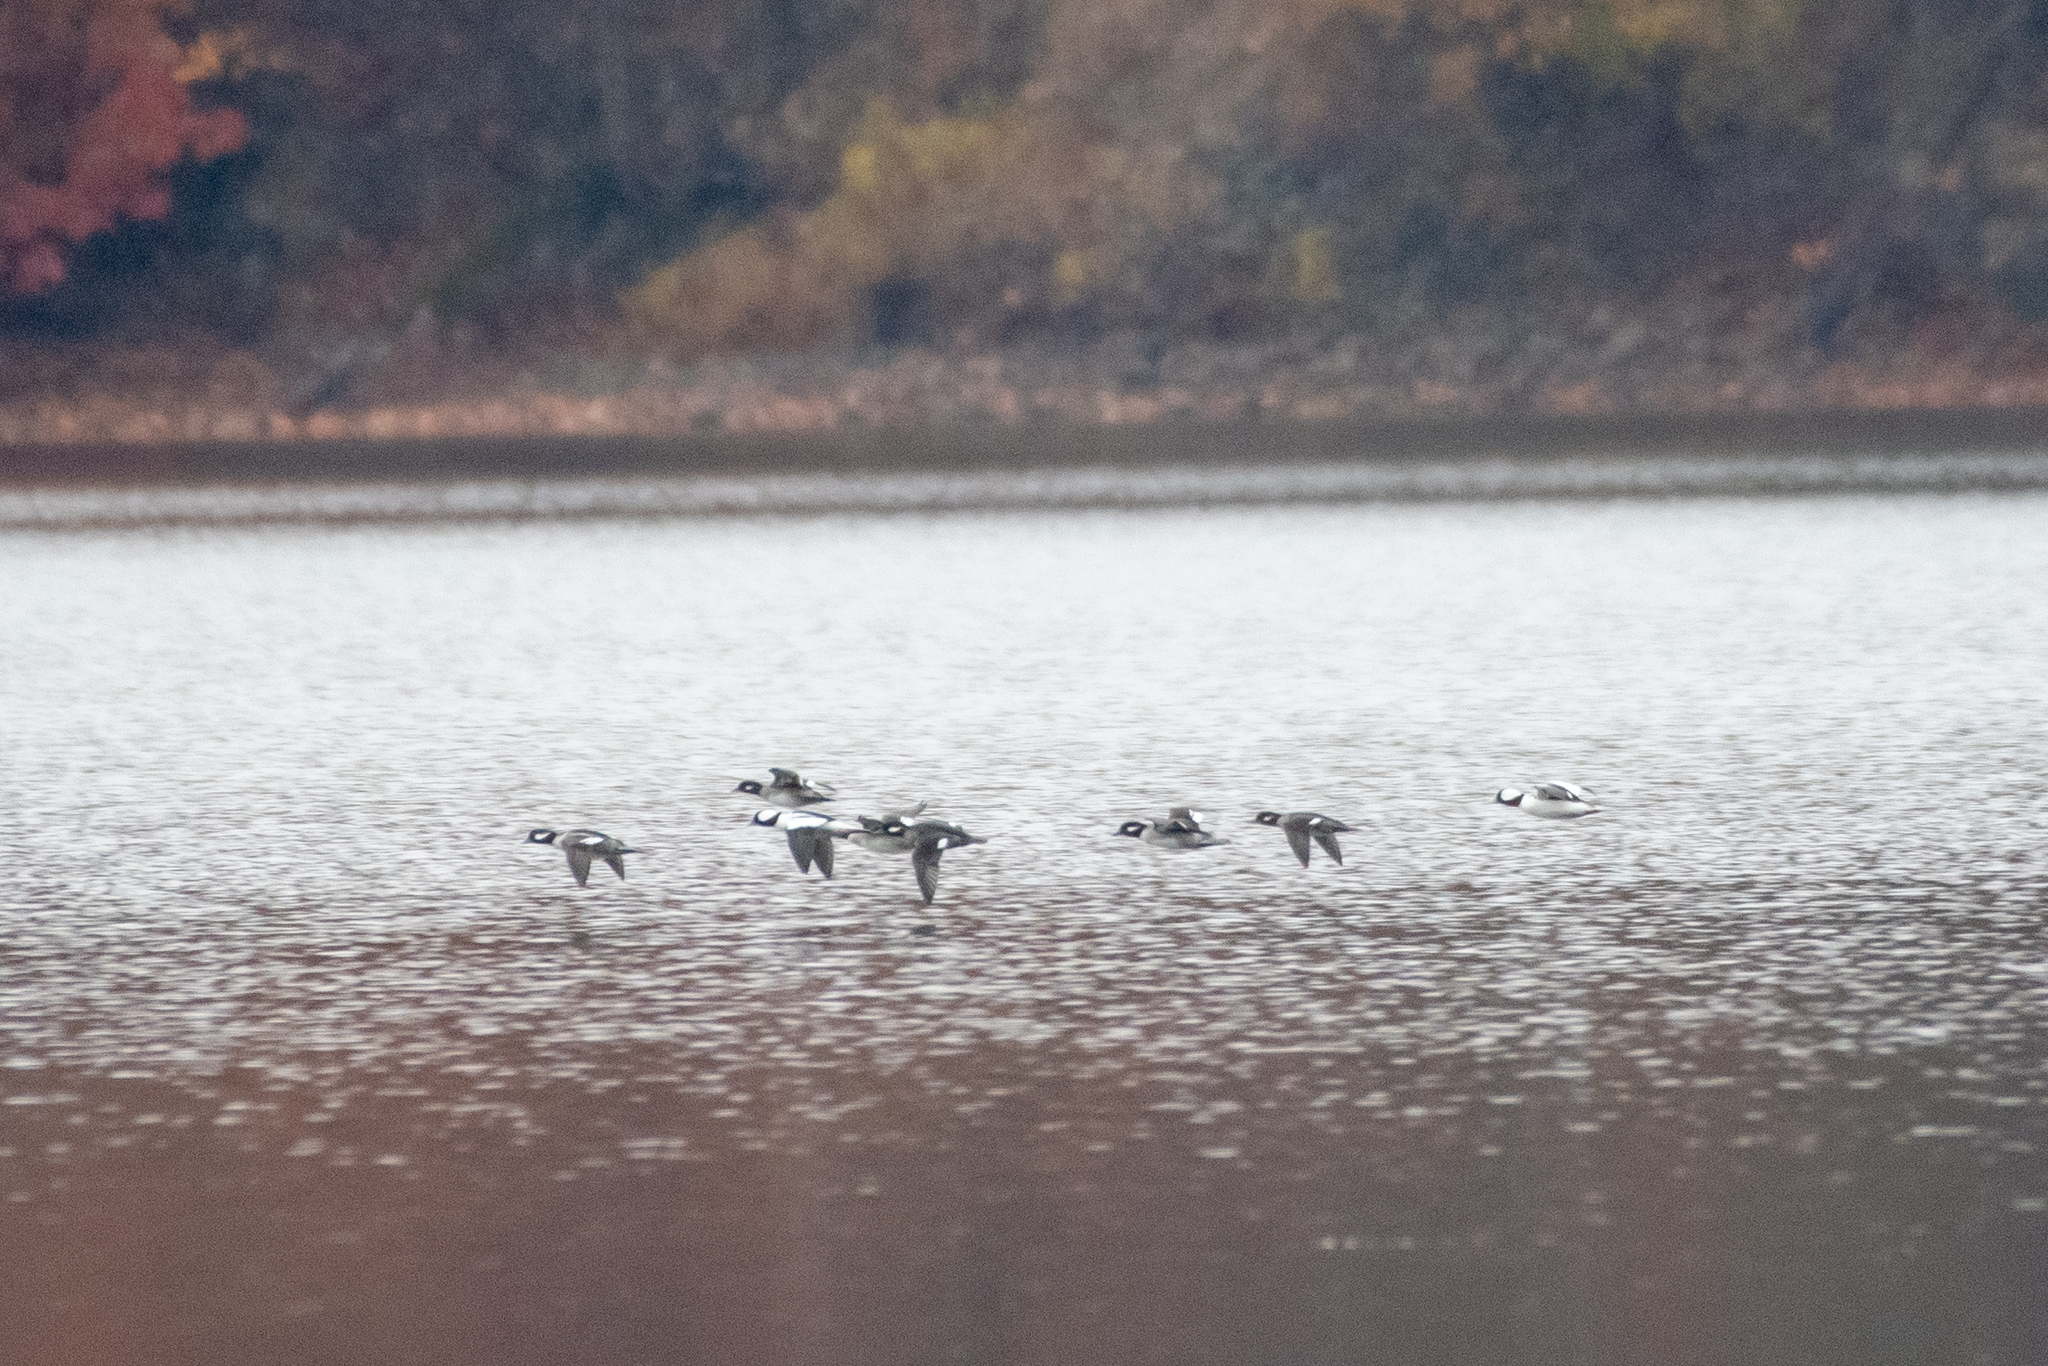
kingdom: Animalia
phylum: Chordata
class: Aves
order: Anseriformes
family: Anatidae
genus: Bucephala
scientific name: Bucephala albeola
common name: Bufflehead
